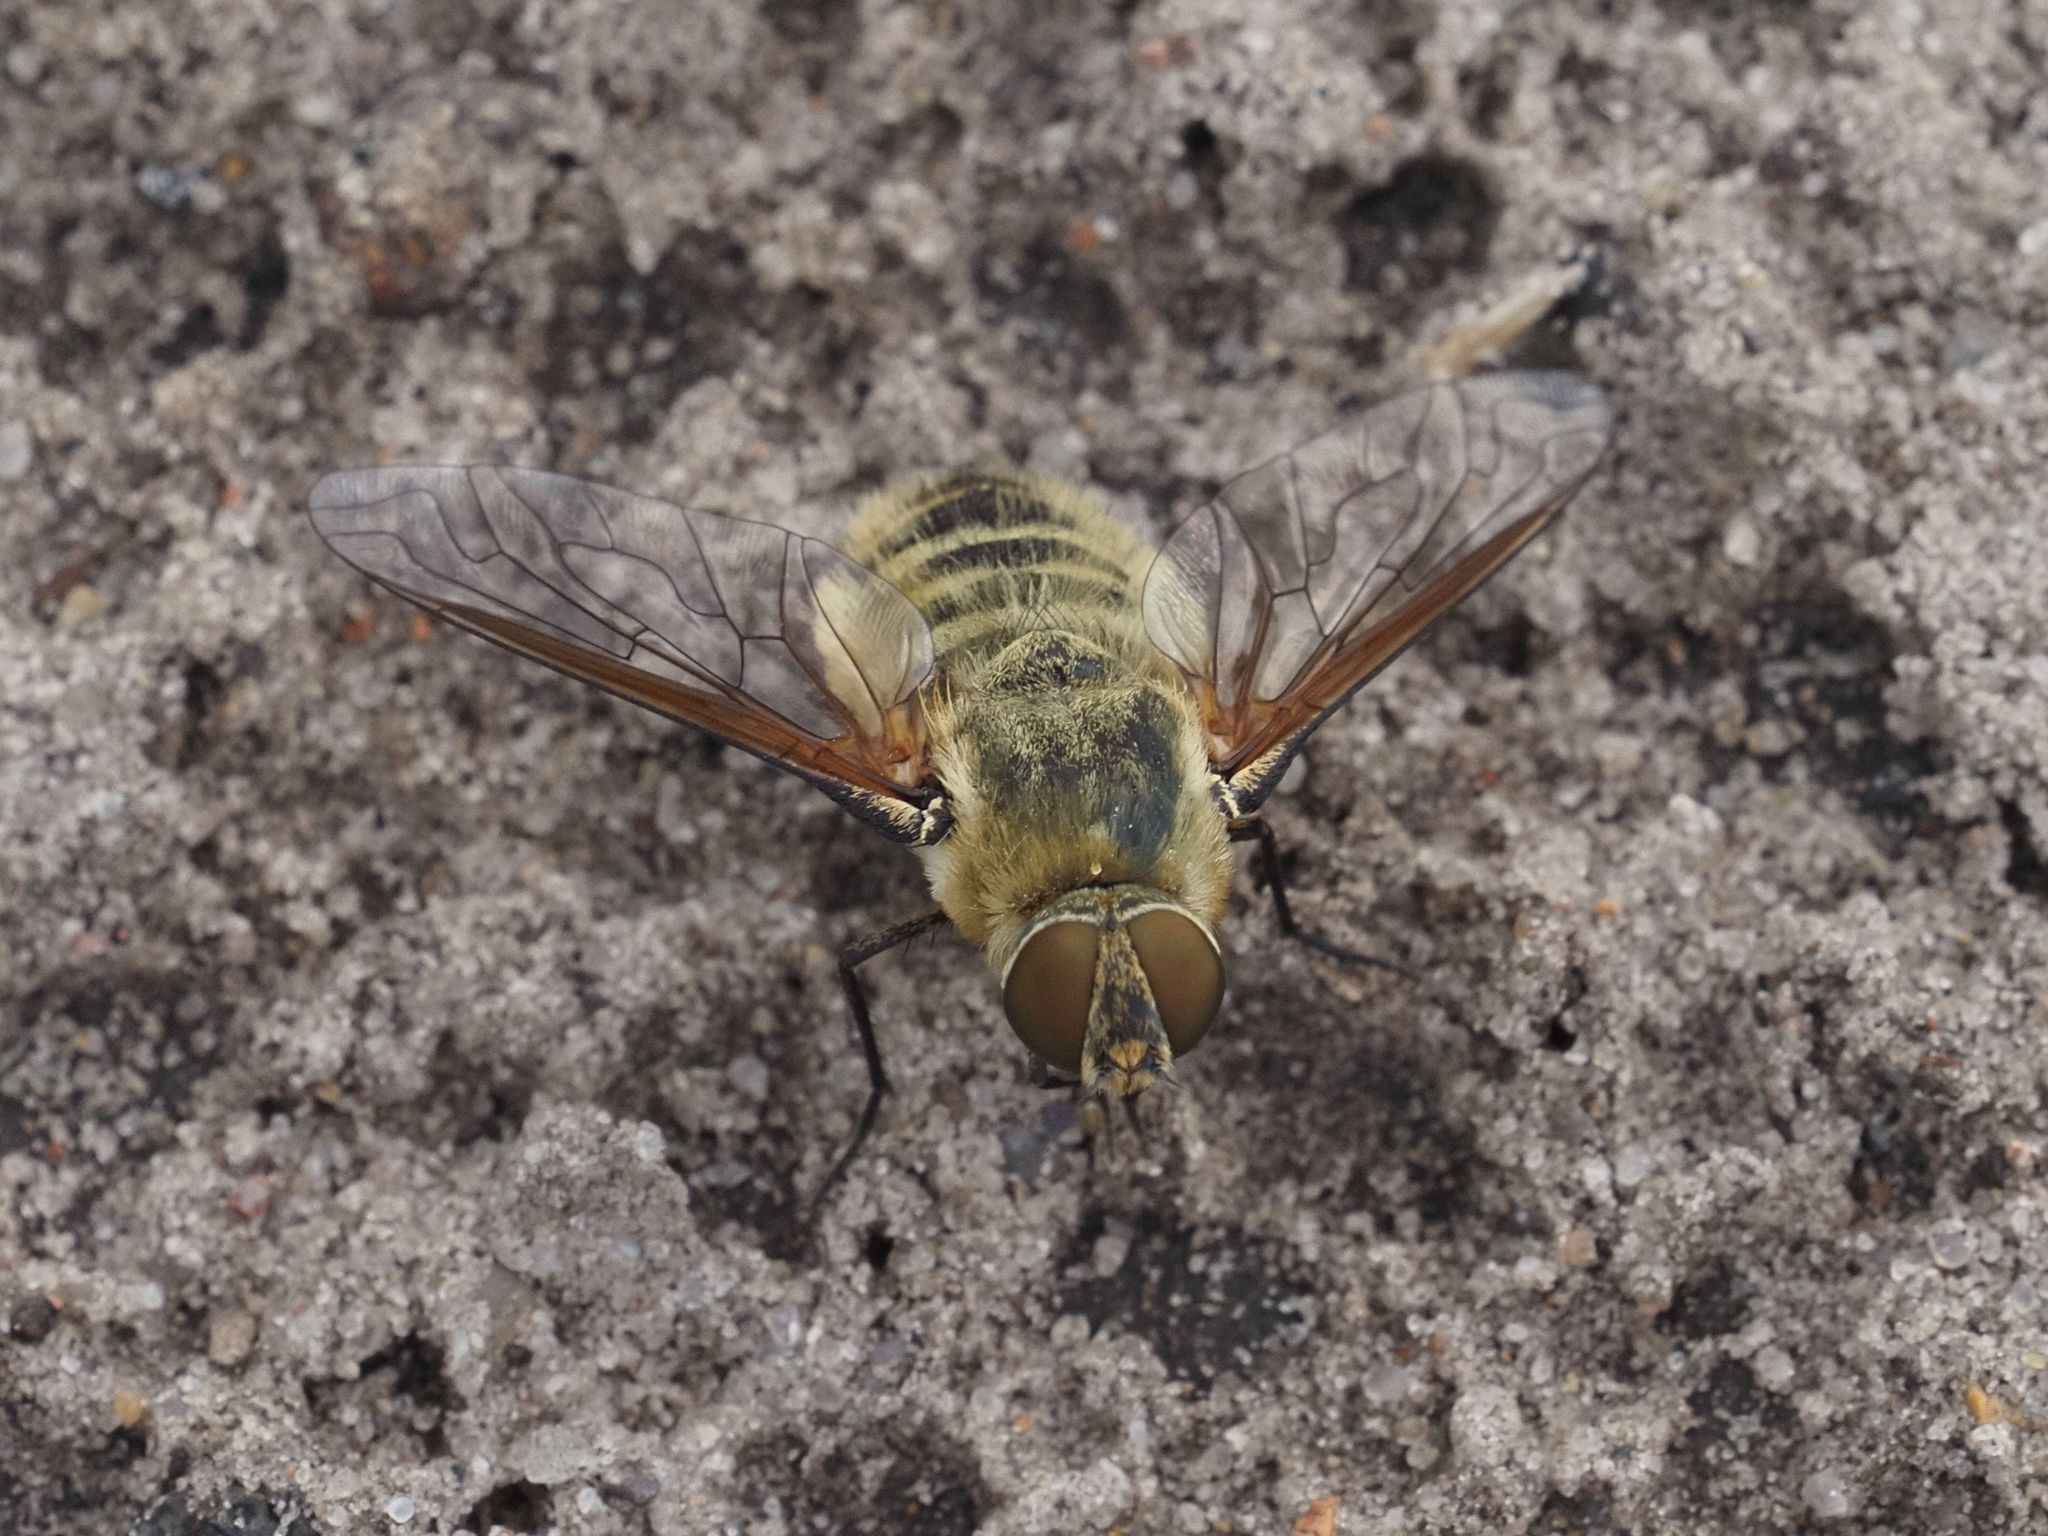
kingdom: Animalia
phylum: Arthropoda
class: Insecta
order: Diptera
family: Bombyliidae
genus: Villa
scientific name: Villa hottentotta
